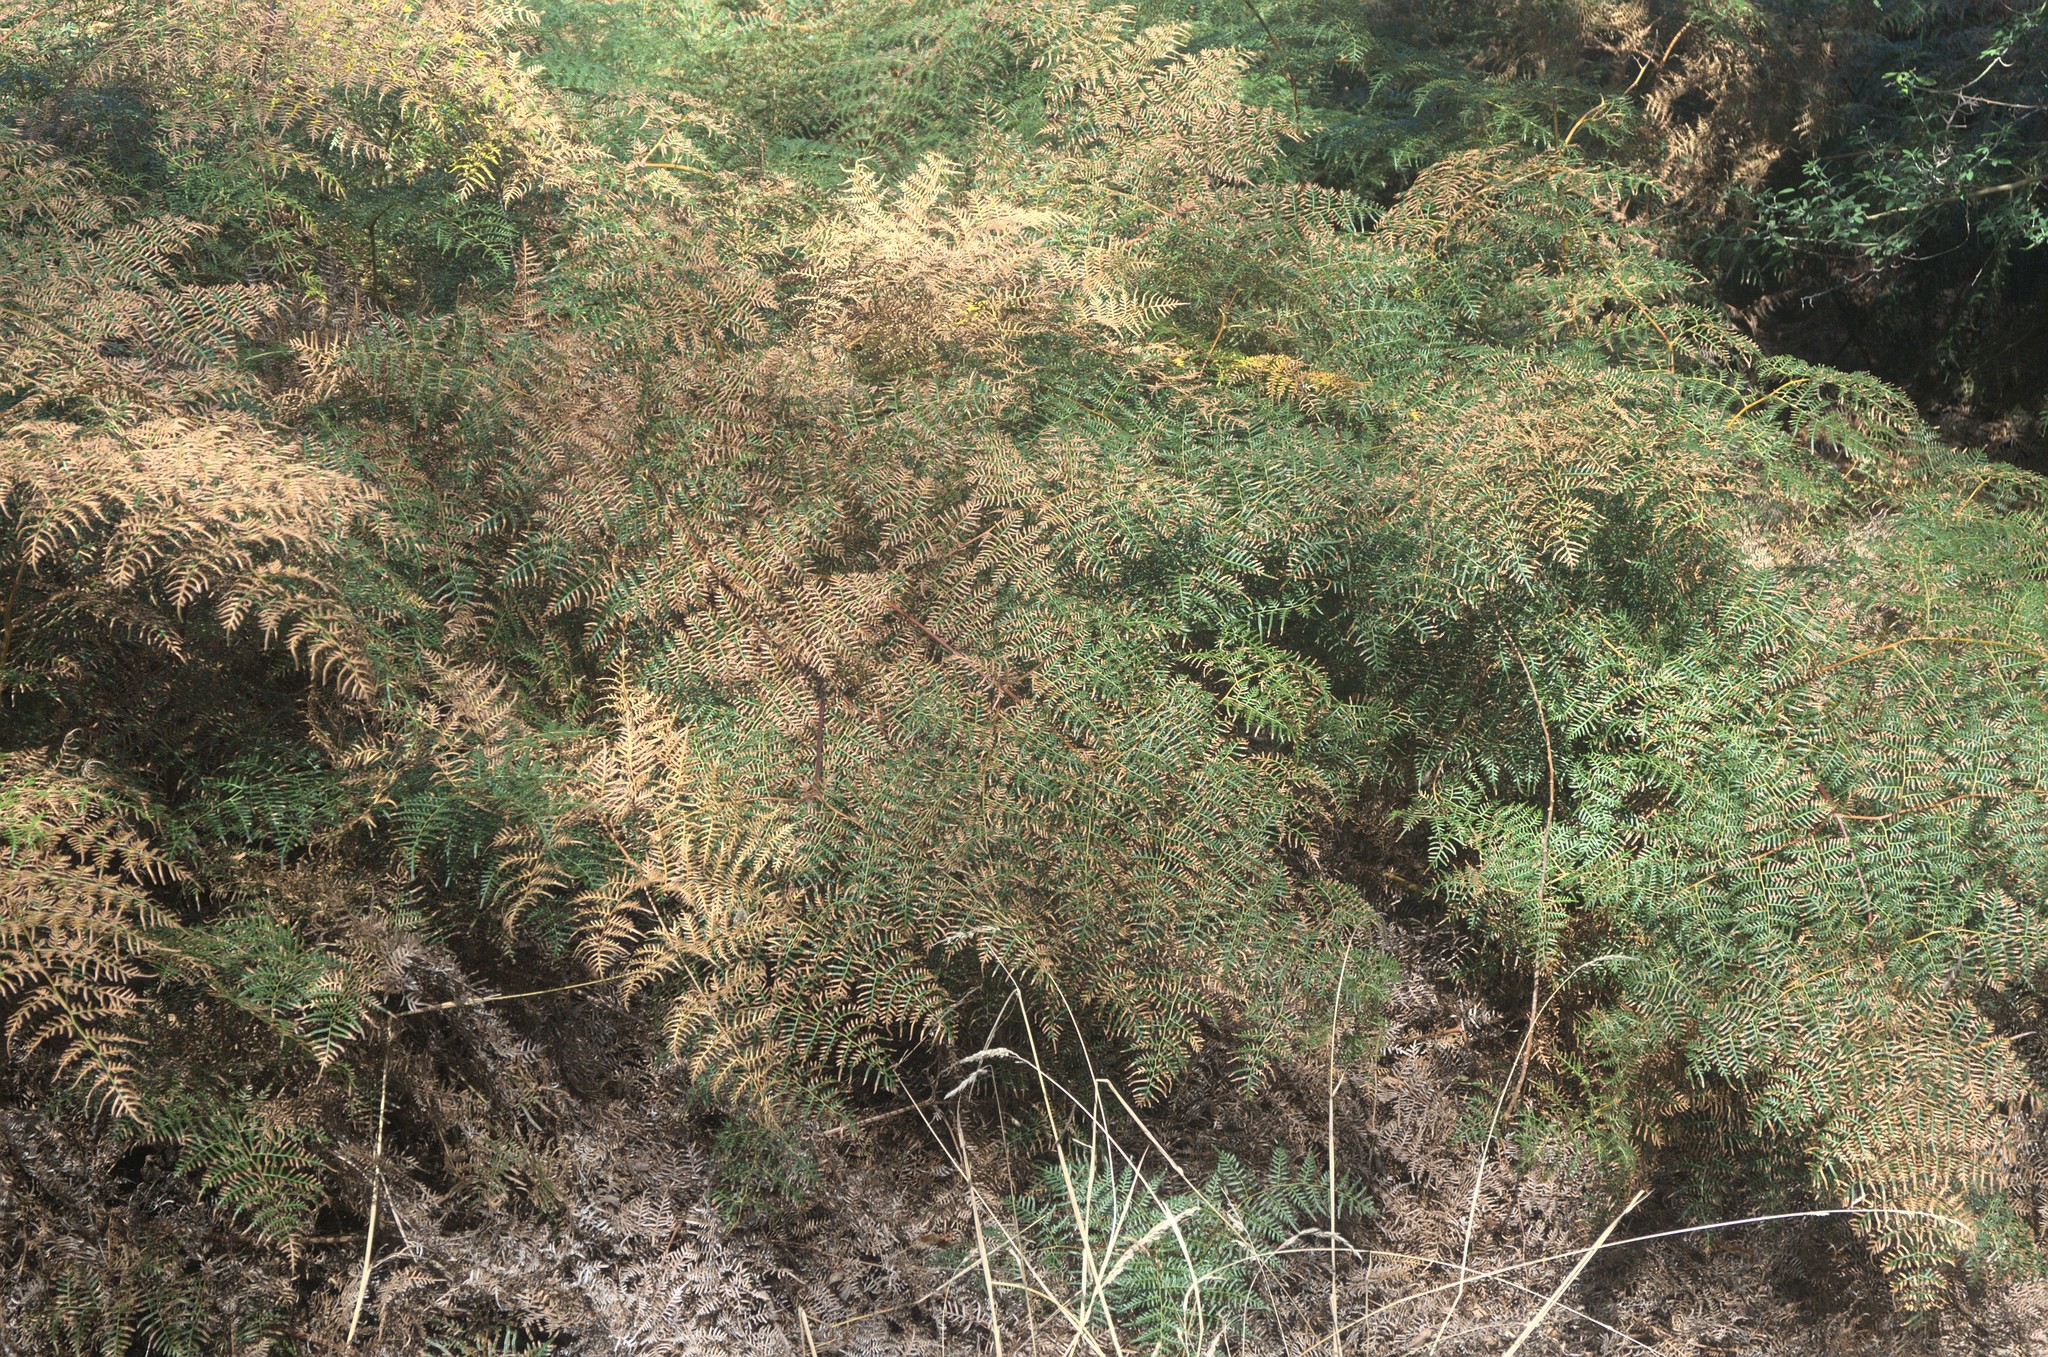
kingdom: Plantae
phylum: Tracheophyta
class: Polypodiopsida
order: Polypodiales
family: Dennstaedtiaceae
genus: Pteridium
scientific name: Pteridium esculentum
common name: Bracken fern
